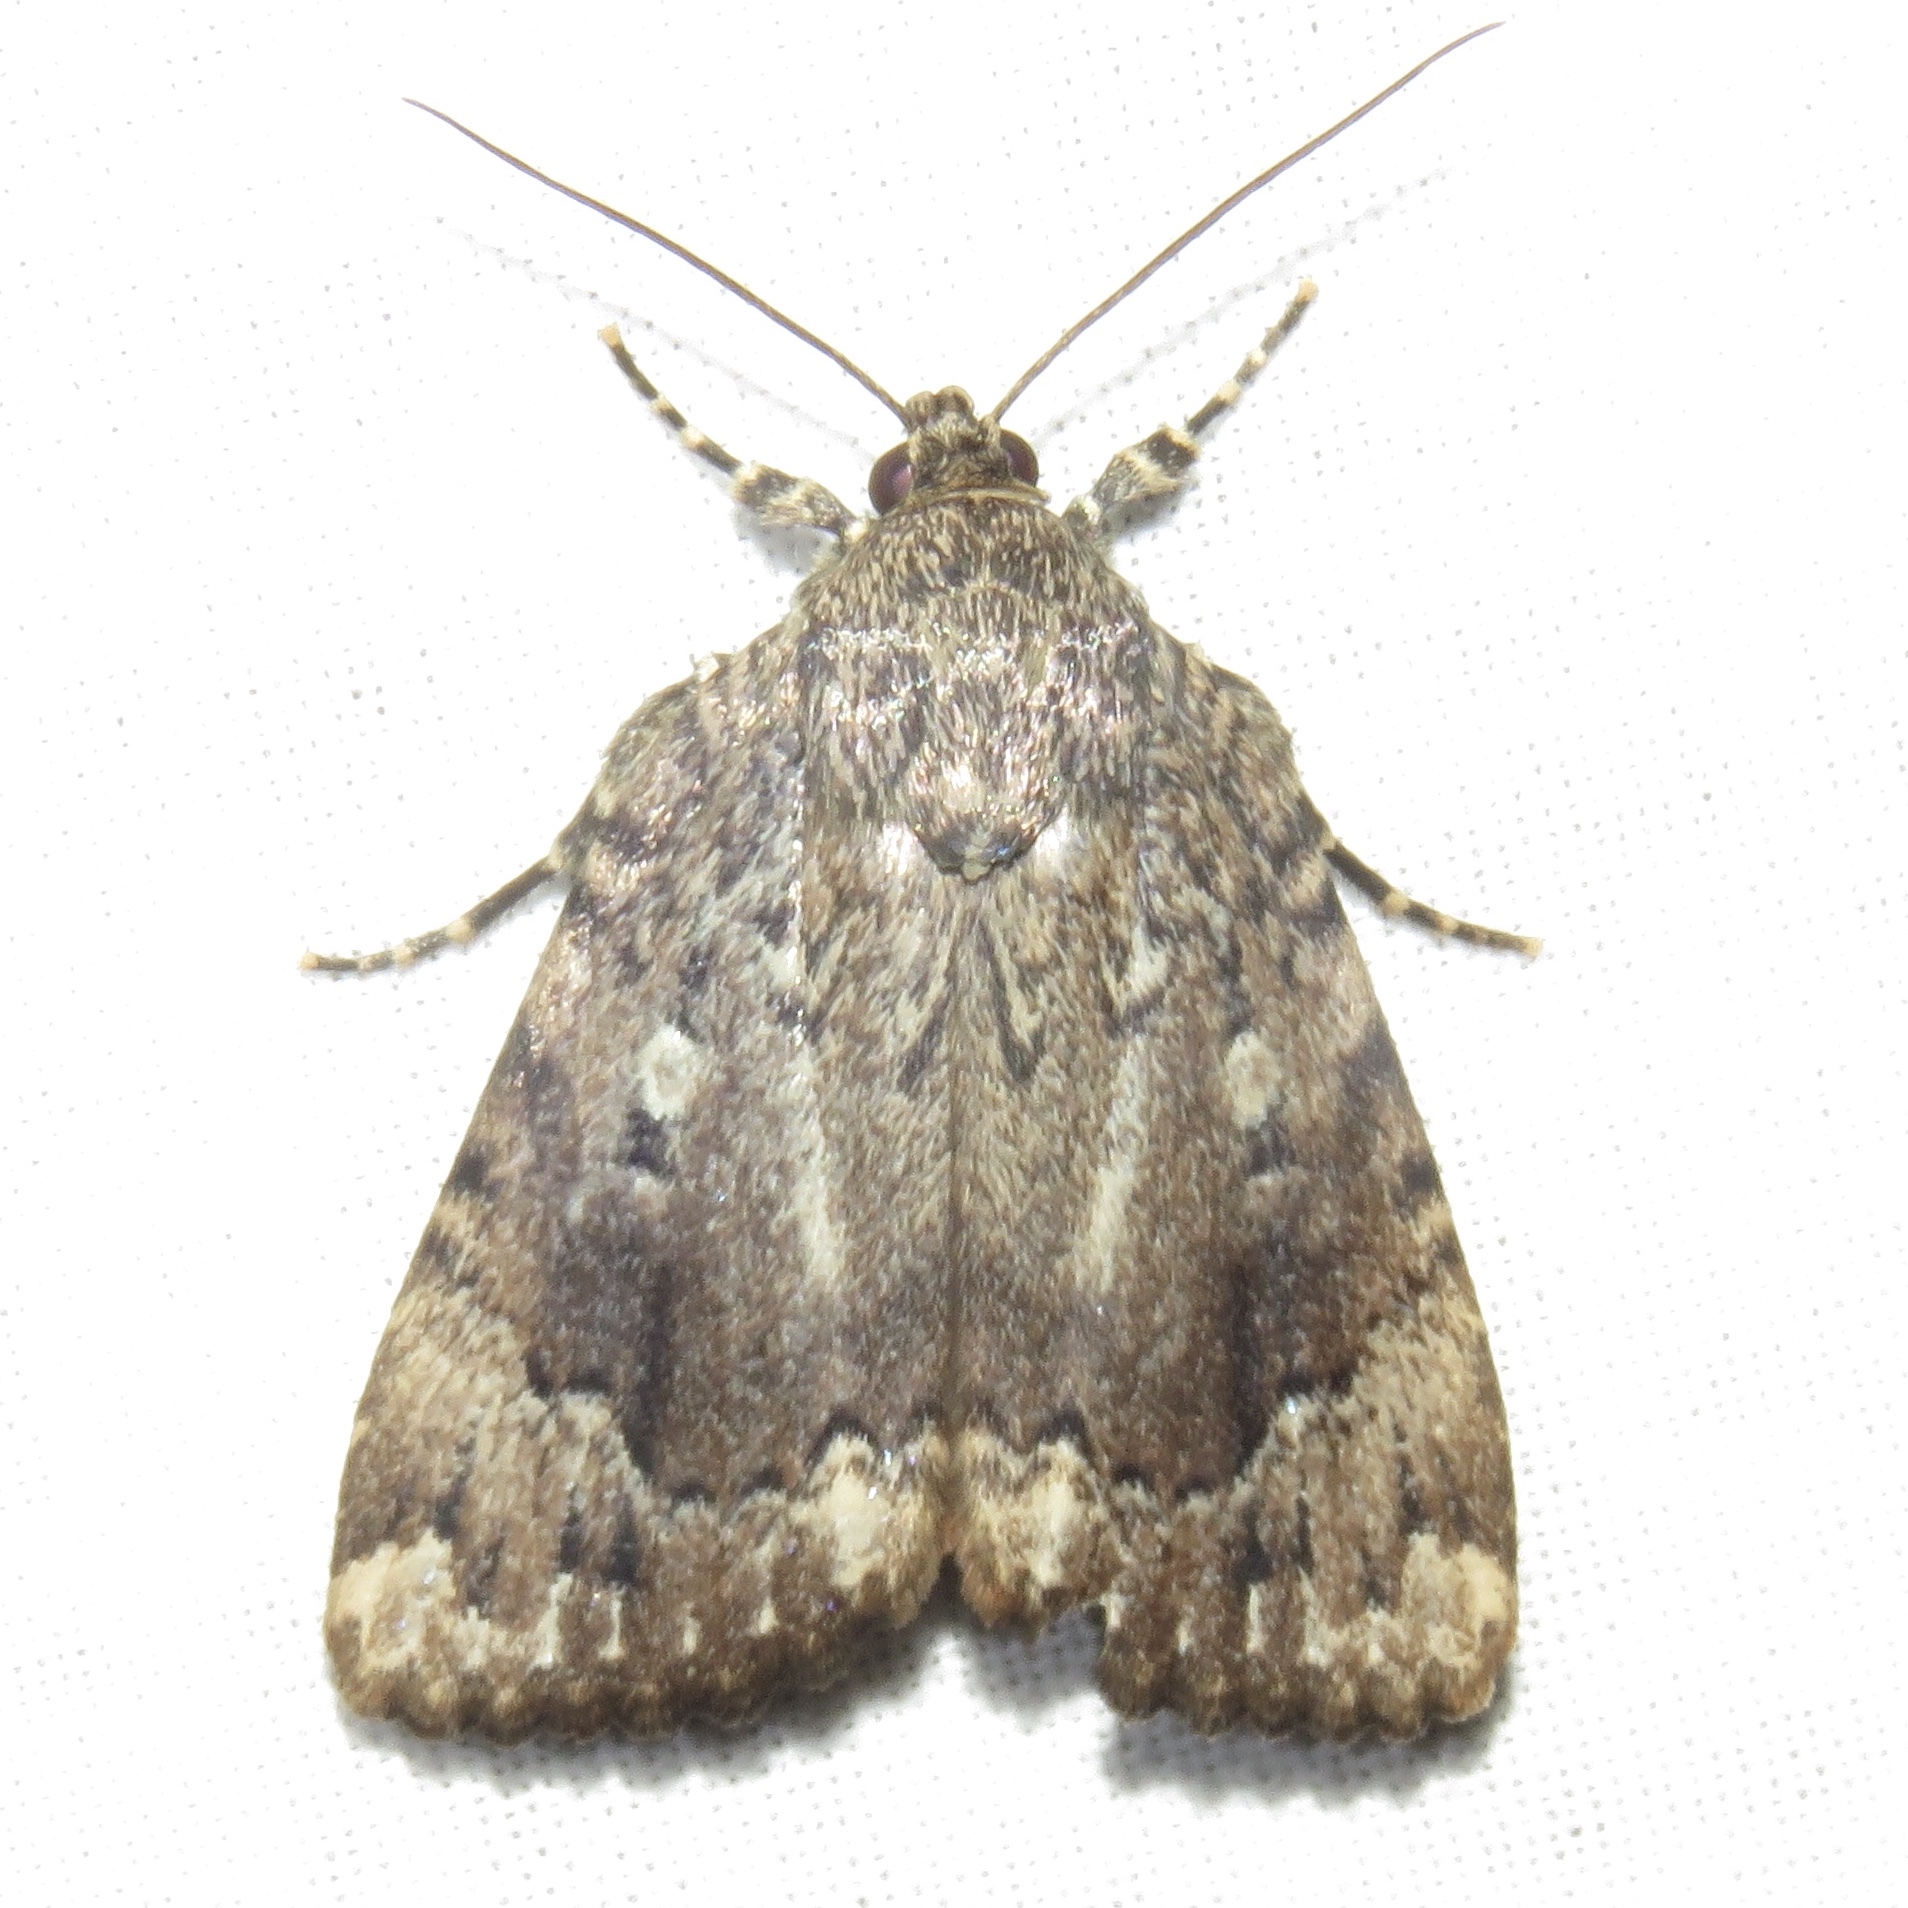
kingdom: Animalia
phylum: Arthropoda
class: Insecta
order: Lepidoptera
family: Noctuidae
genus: Amphipyra
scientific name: Amphipyra pyramidoides
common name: American copper underwing
